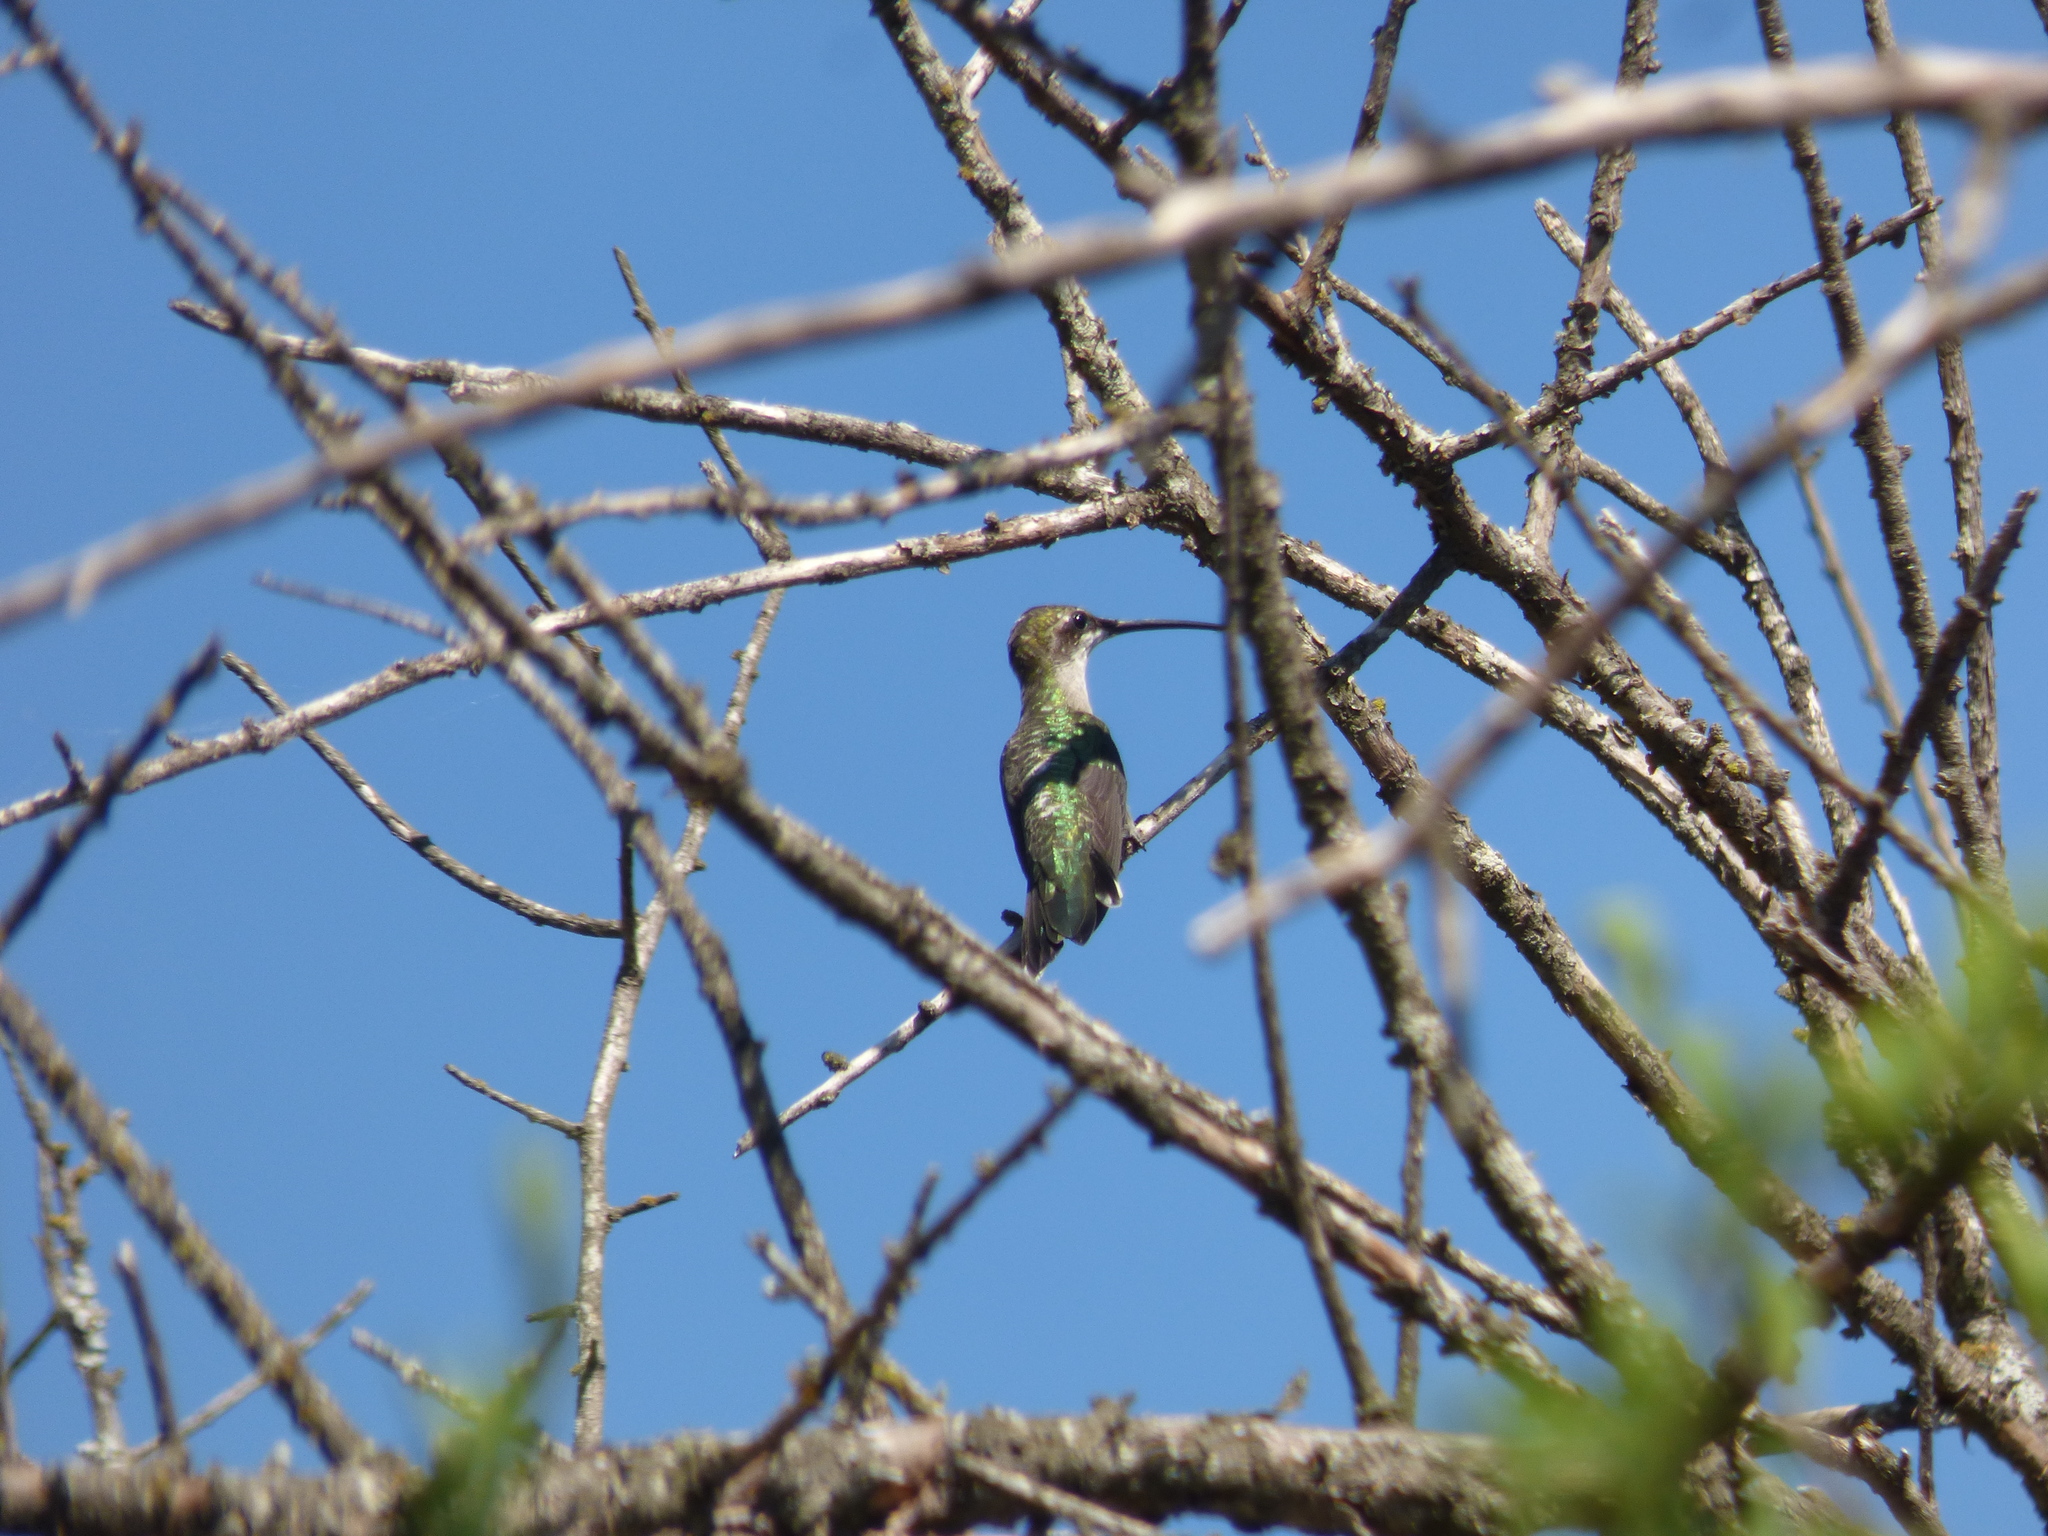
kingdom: Animalia
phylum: Chordata
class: Aves
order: Apodiformes
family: Trochilidae
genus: Heliomaster
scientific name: Heliomaster furcifer
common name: Blue-tufted starthroat
